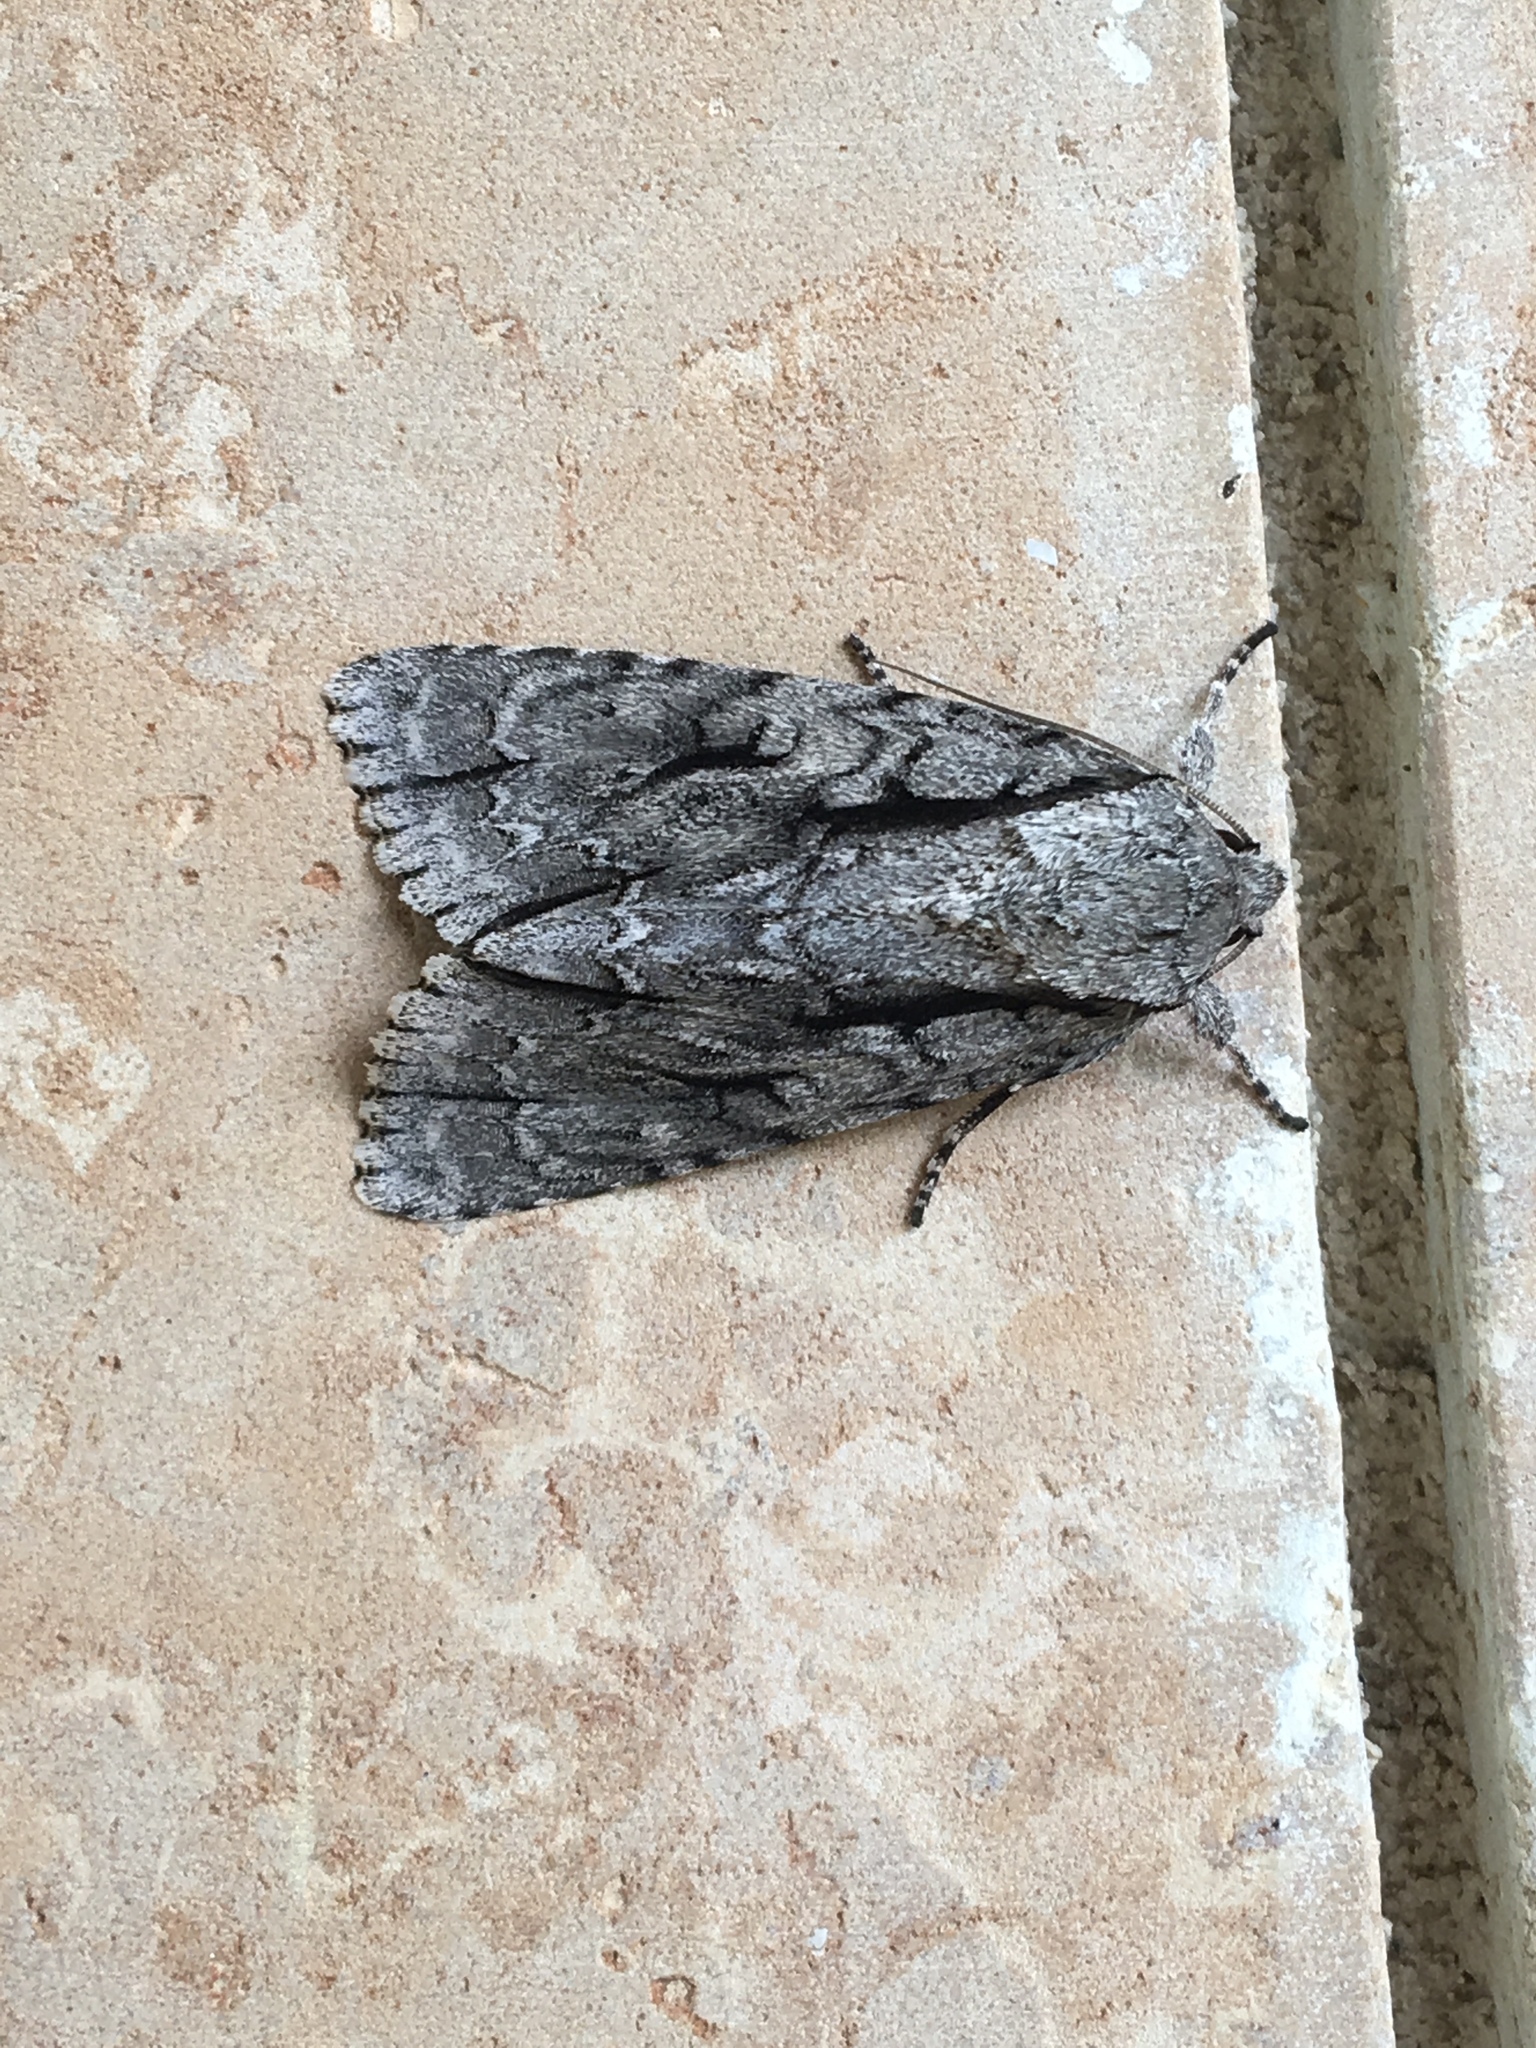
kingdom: Animalia
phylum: Arthropoda
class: Insecta
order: Lepidoptera
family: Noctuidae
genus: Acronicta
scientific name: Acronicta lobeliae
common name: Greater oak dagger
